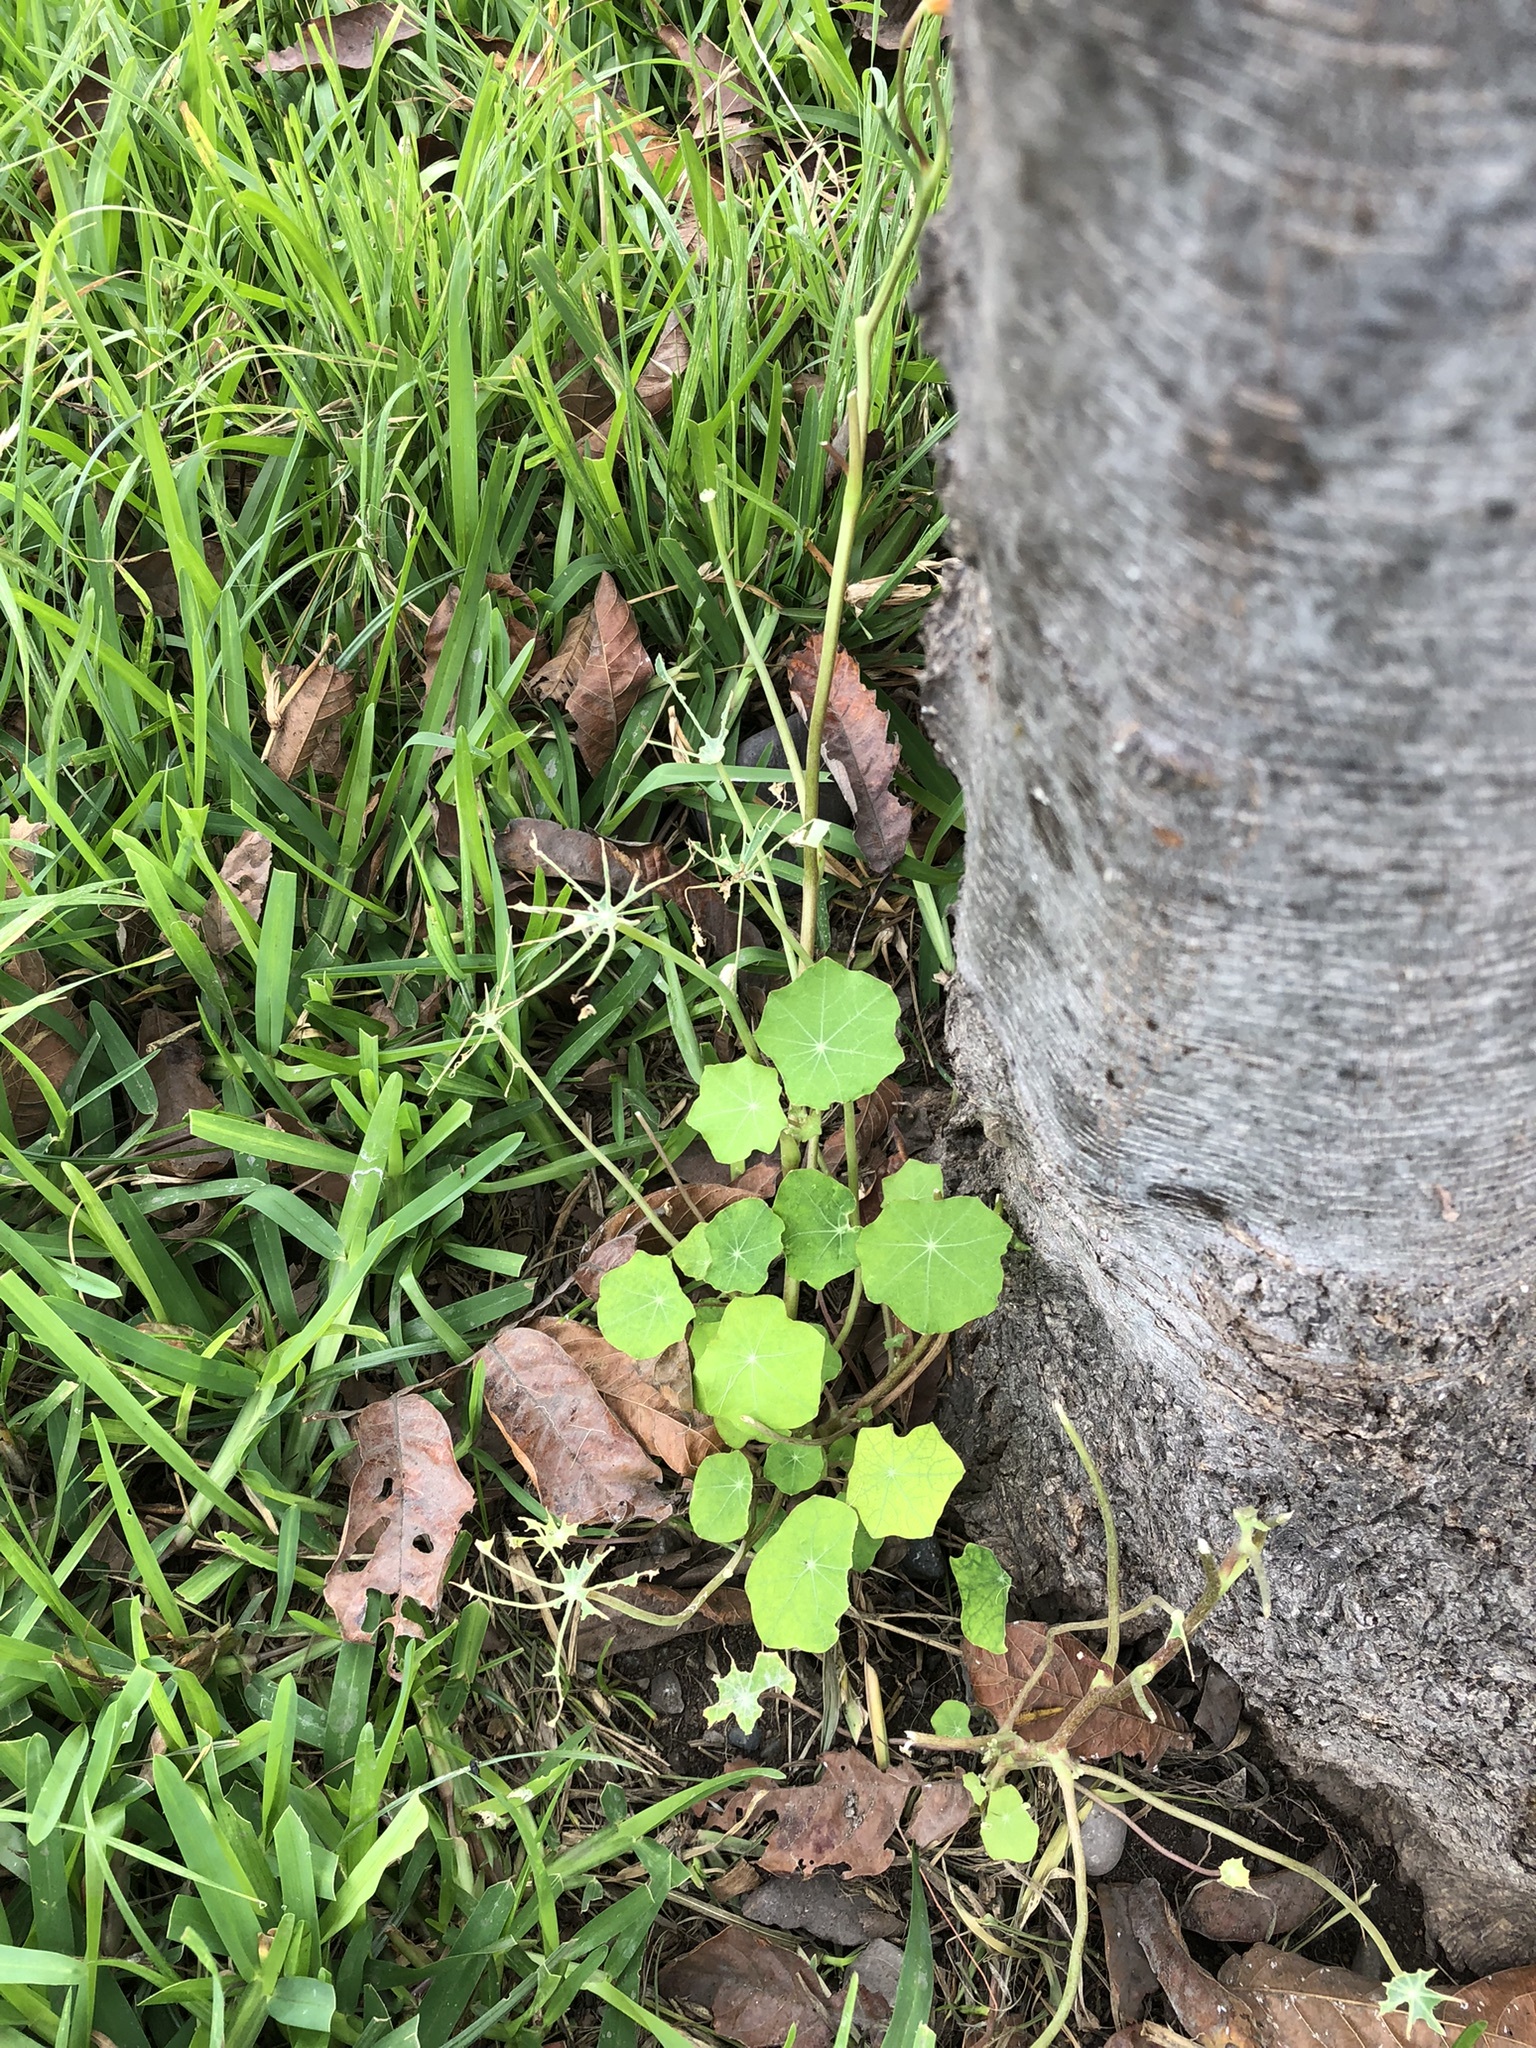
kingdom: Plantae
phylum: Tracheophyta
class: Magnoliopsida
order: Brassicales
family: Tropaeolaceae
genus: Tropaeolum
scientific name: Tropaeolum majus
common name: Nasturtium
